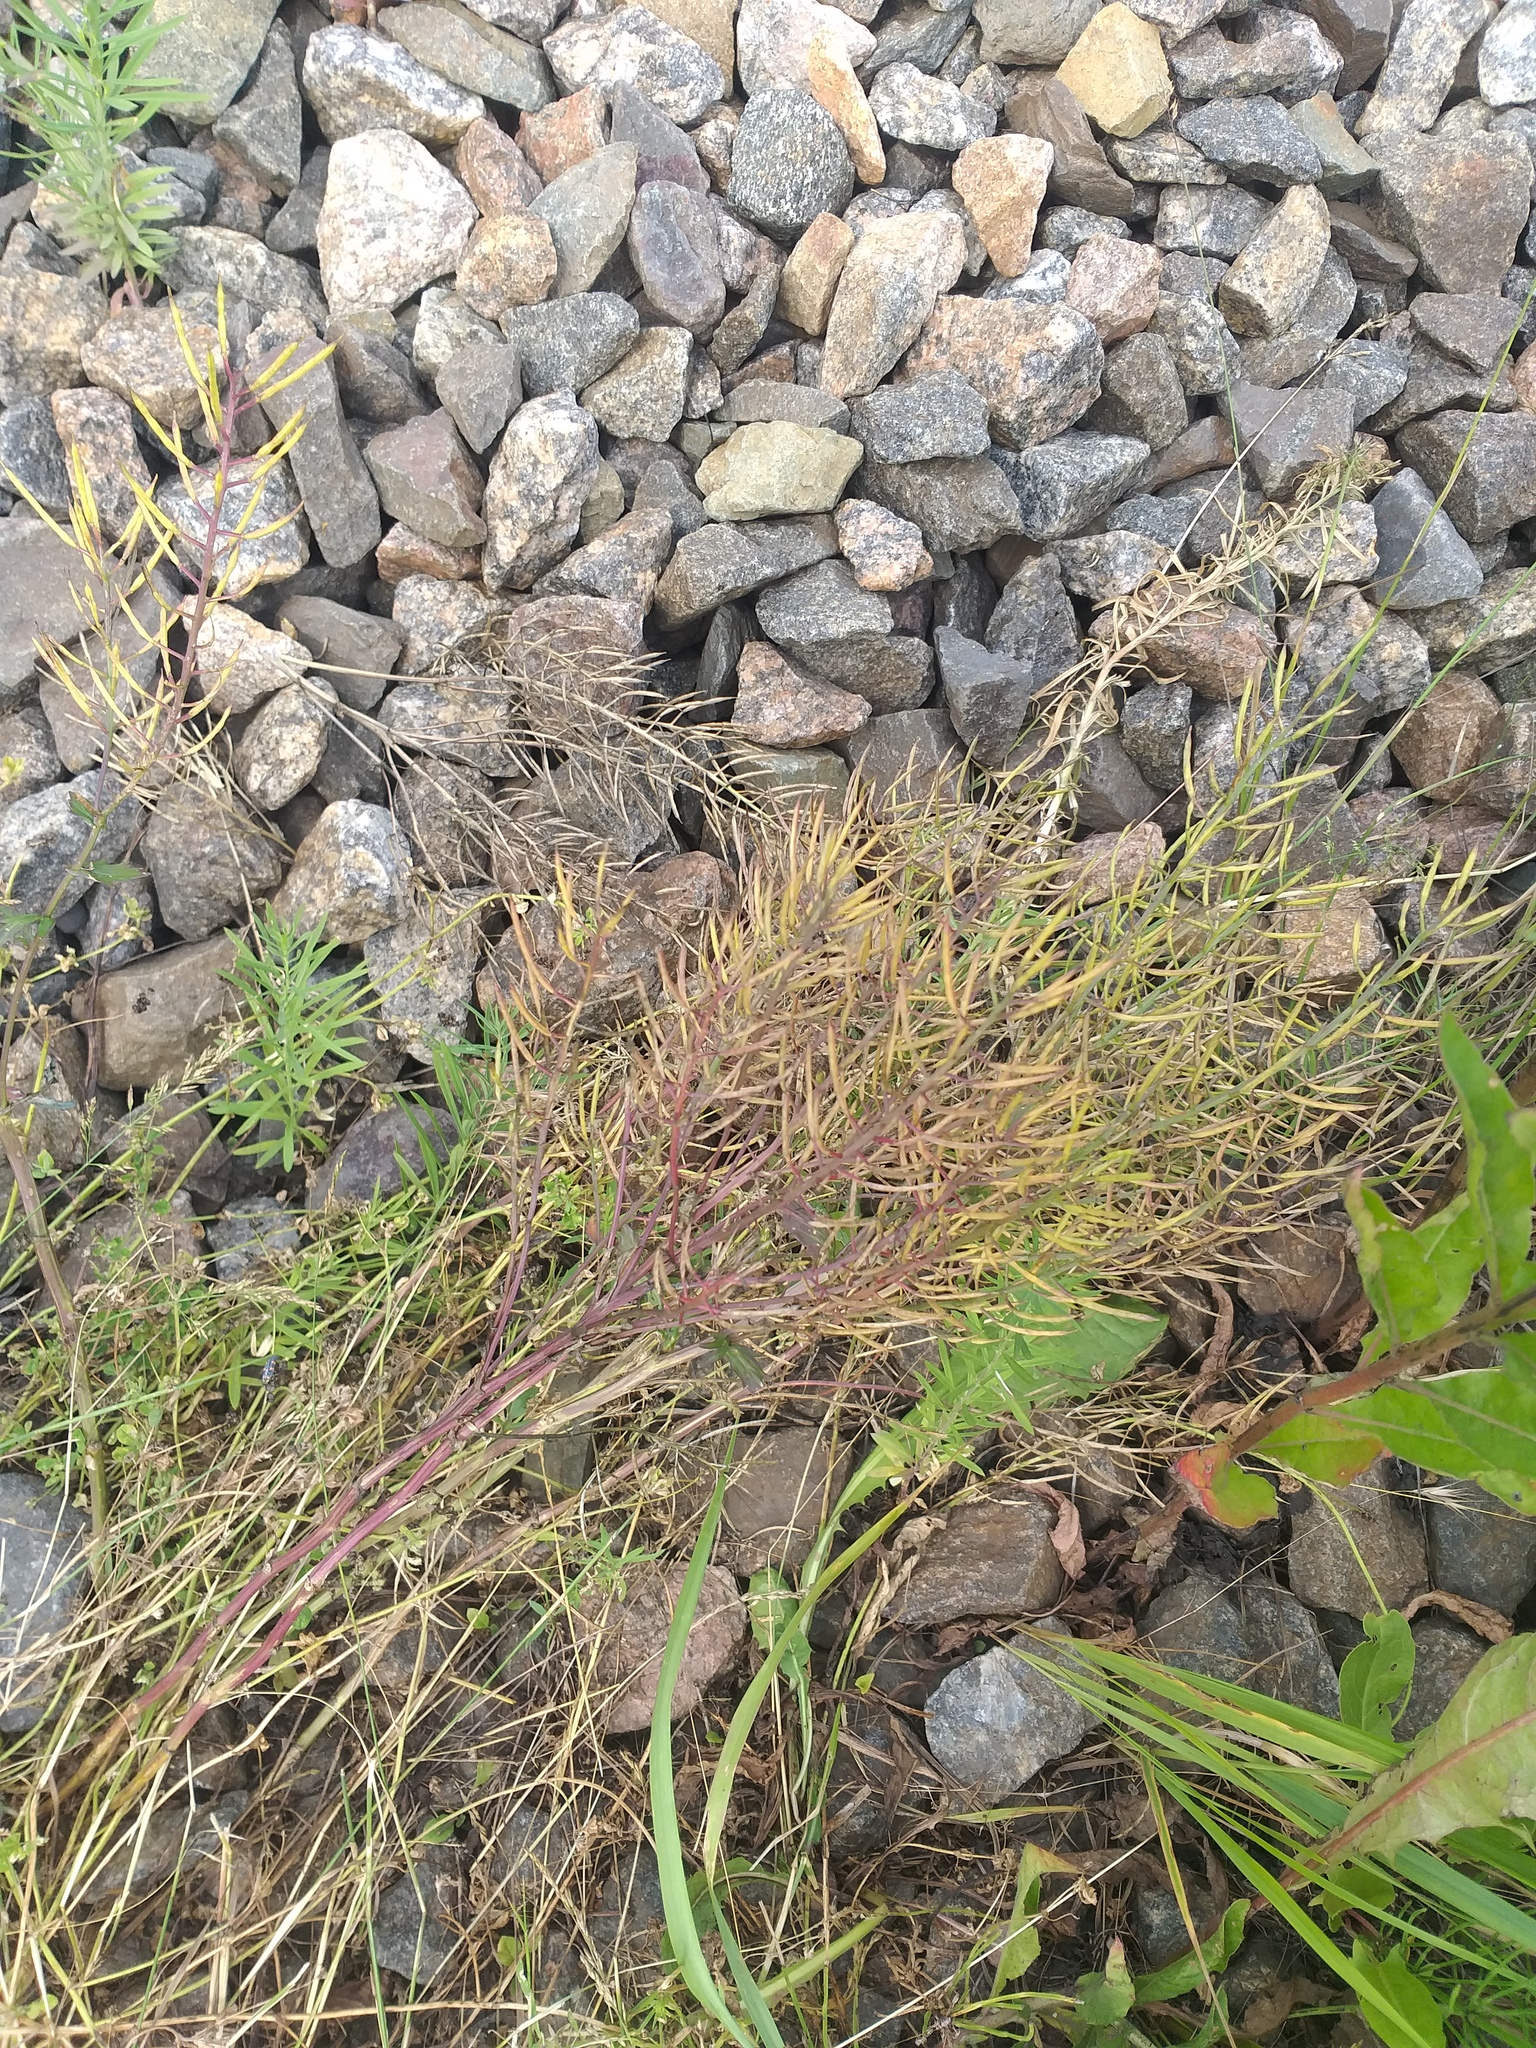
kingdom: Plantae
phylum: Tracheophyta
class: Magnoliopsida
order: Brassicales
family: Brassicaceae
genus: Barbarea
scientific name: Barbarea vulgaris
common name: Cressy-greens
